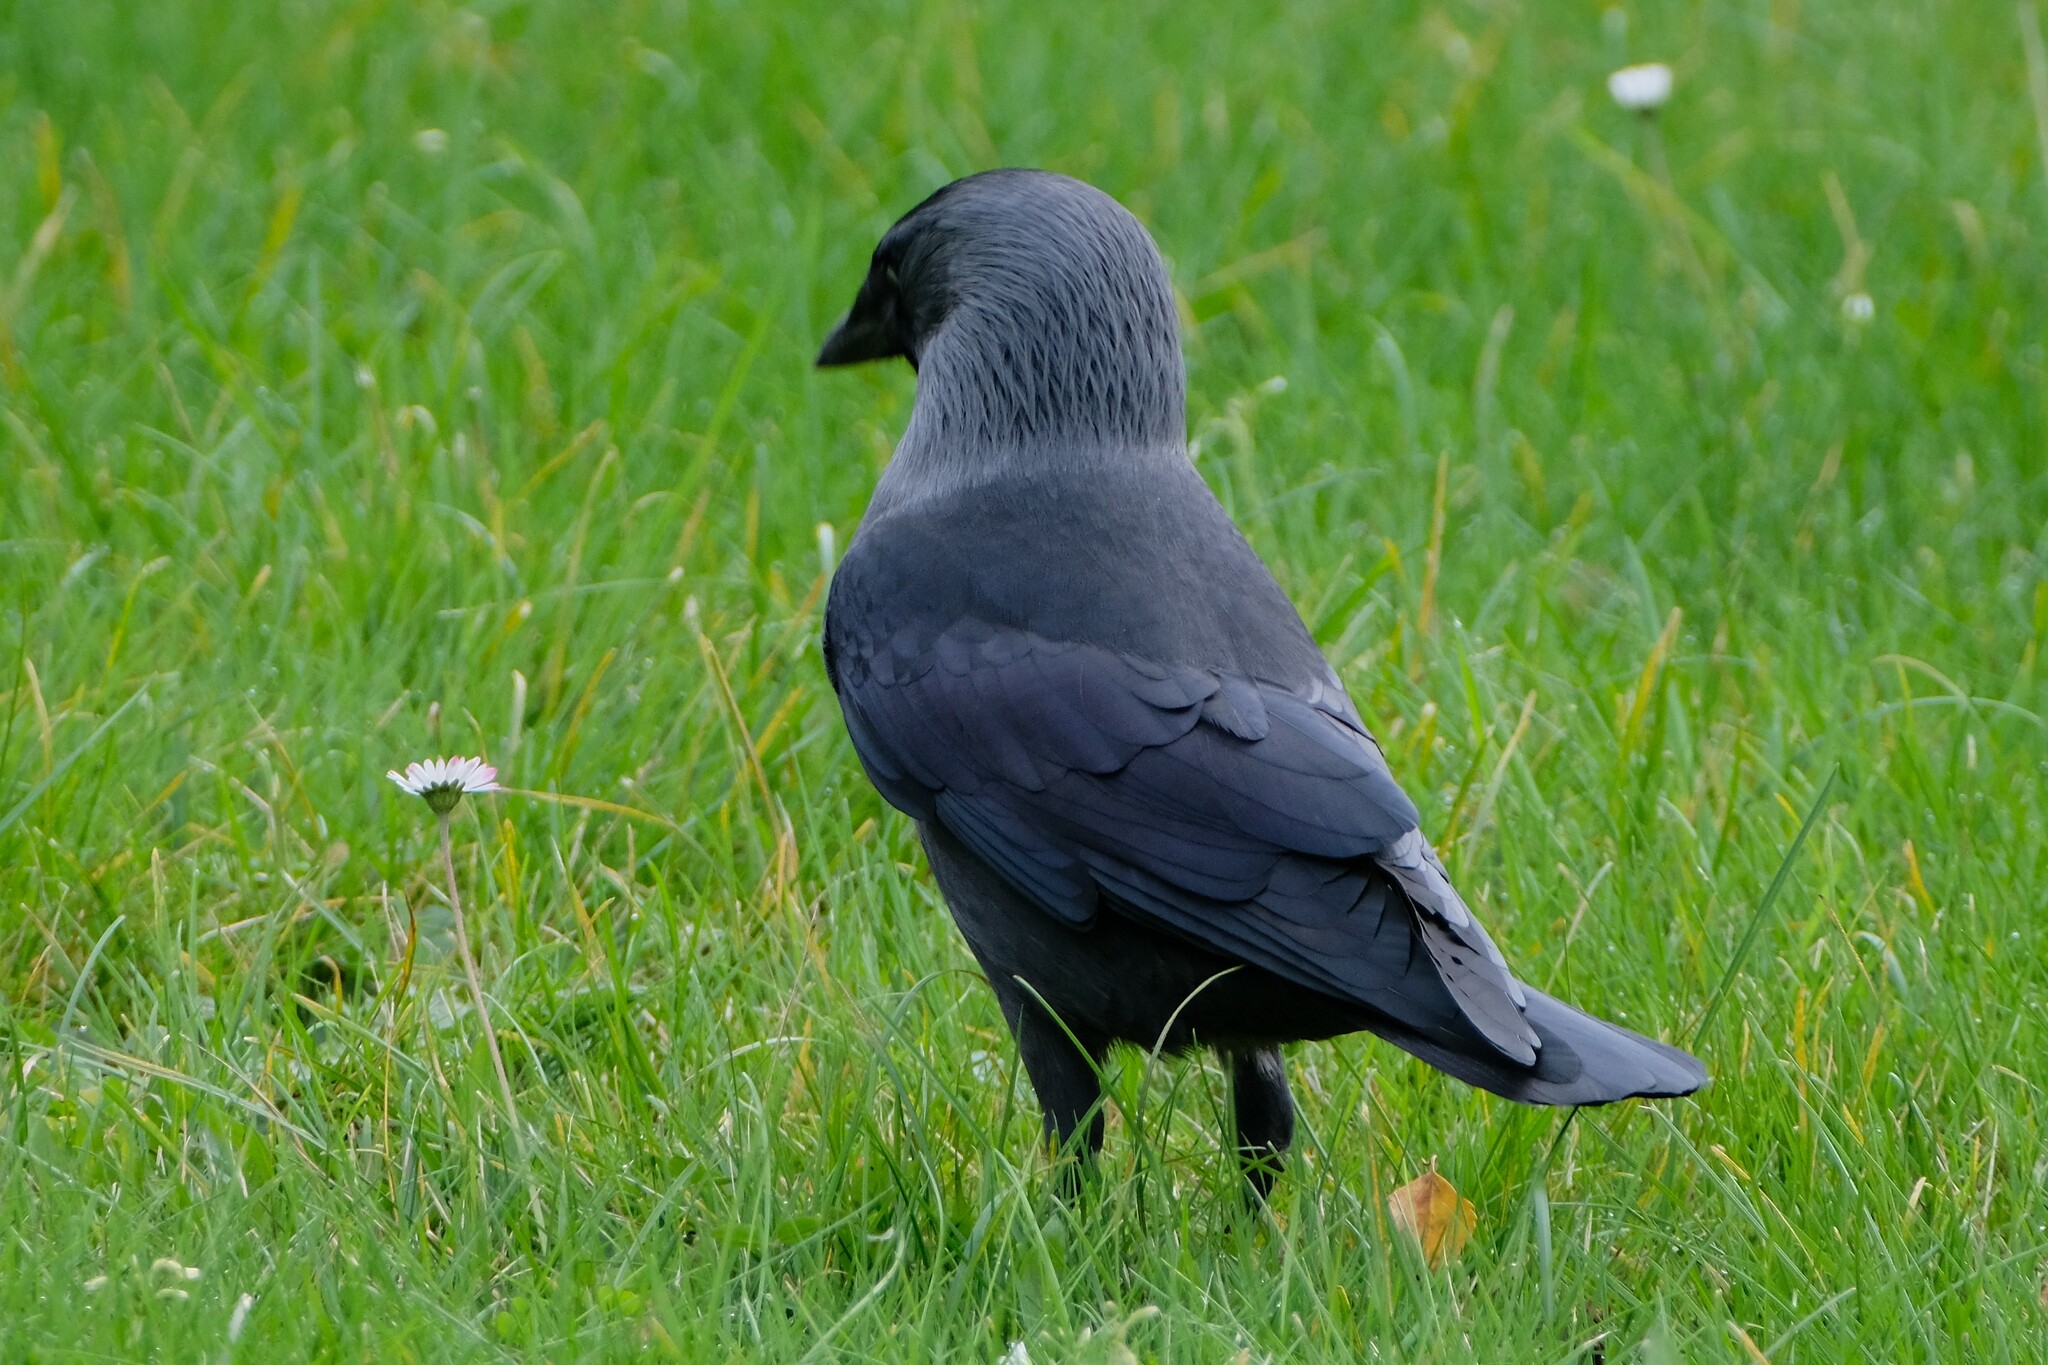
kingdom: Animalia
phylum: Chordata
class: Aves
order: Passeriformes
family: Corvidae
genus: Coloeus
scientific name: Coloeus monedula
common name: Western jackdaw
